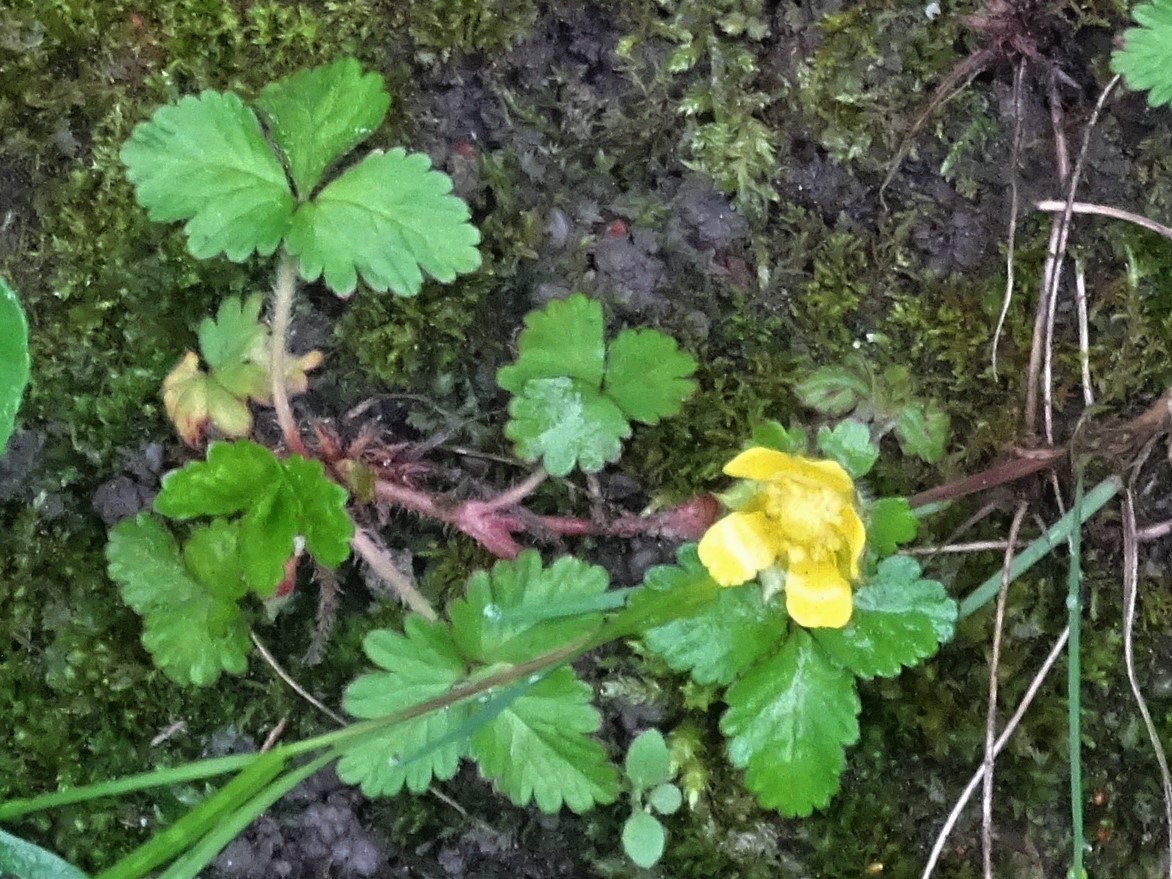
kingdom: Plantae
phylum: Tracheophyta
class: Magnoliopsida
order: Rosales
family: Rosaceae
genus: Potentilla
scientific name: Potentilla indica
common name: Yellow-flowered strawberry
